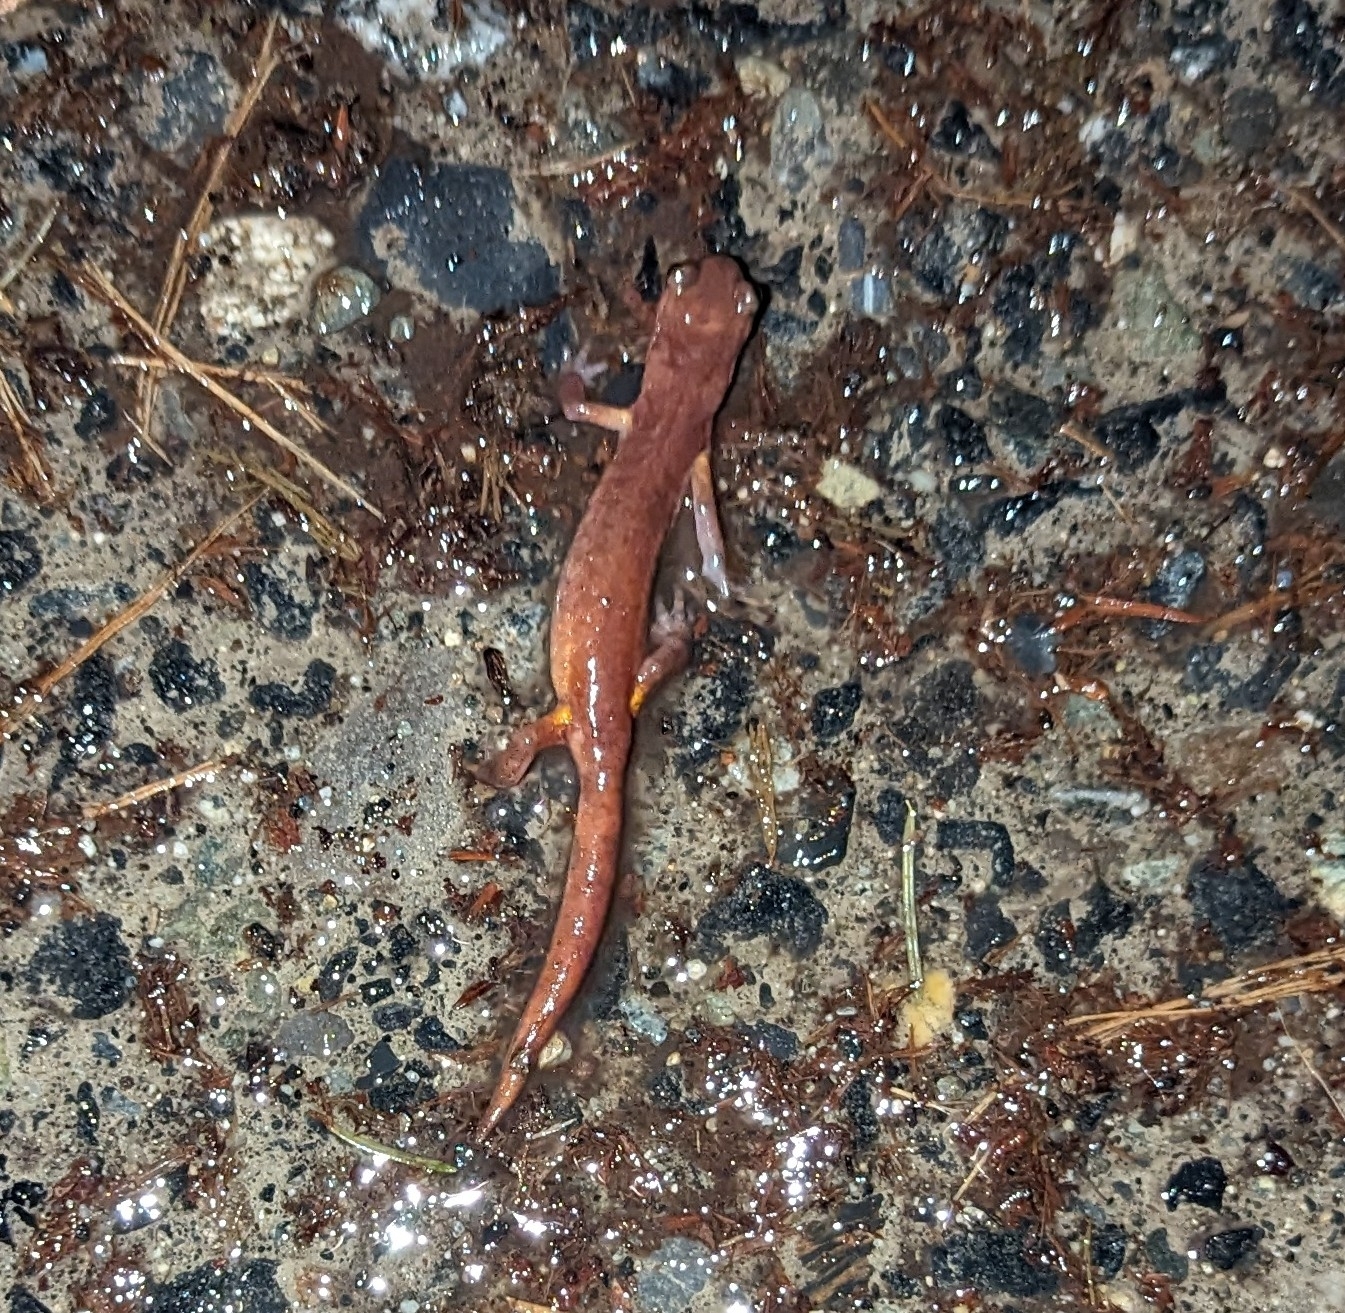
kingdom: Animalia
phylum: Chordata
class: Amphibia
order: Caudata
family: Plethodontidae
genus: Ensatina
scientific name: Ensatina eschscholtzii
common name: Ensatina
